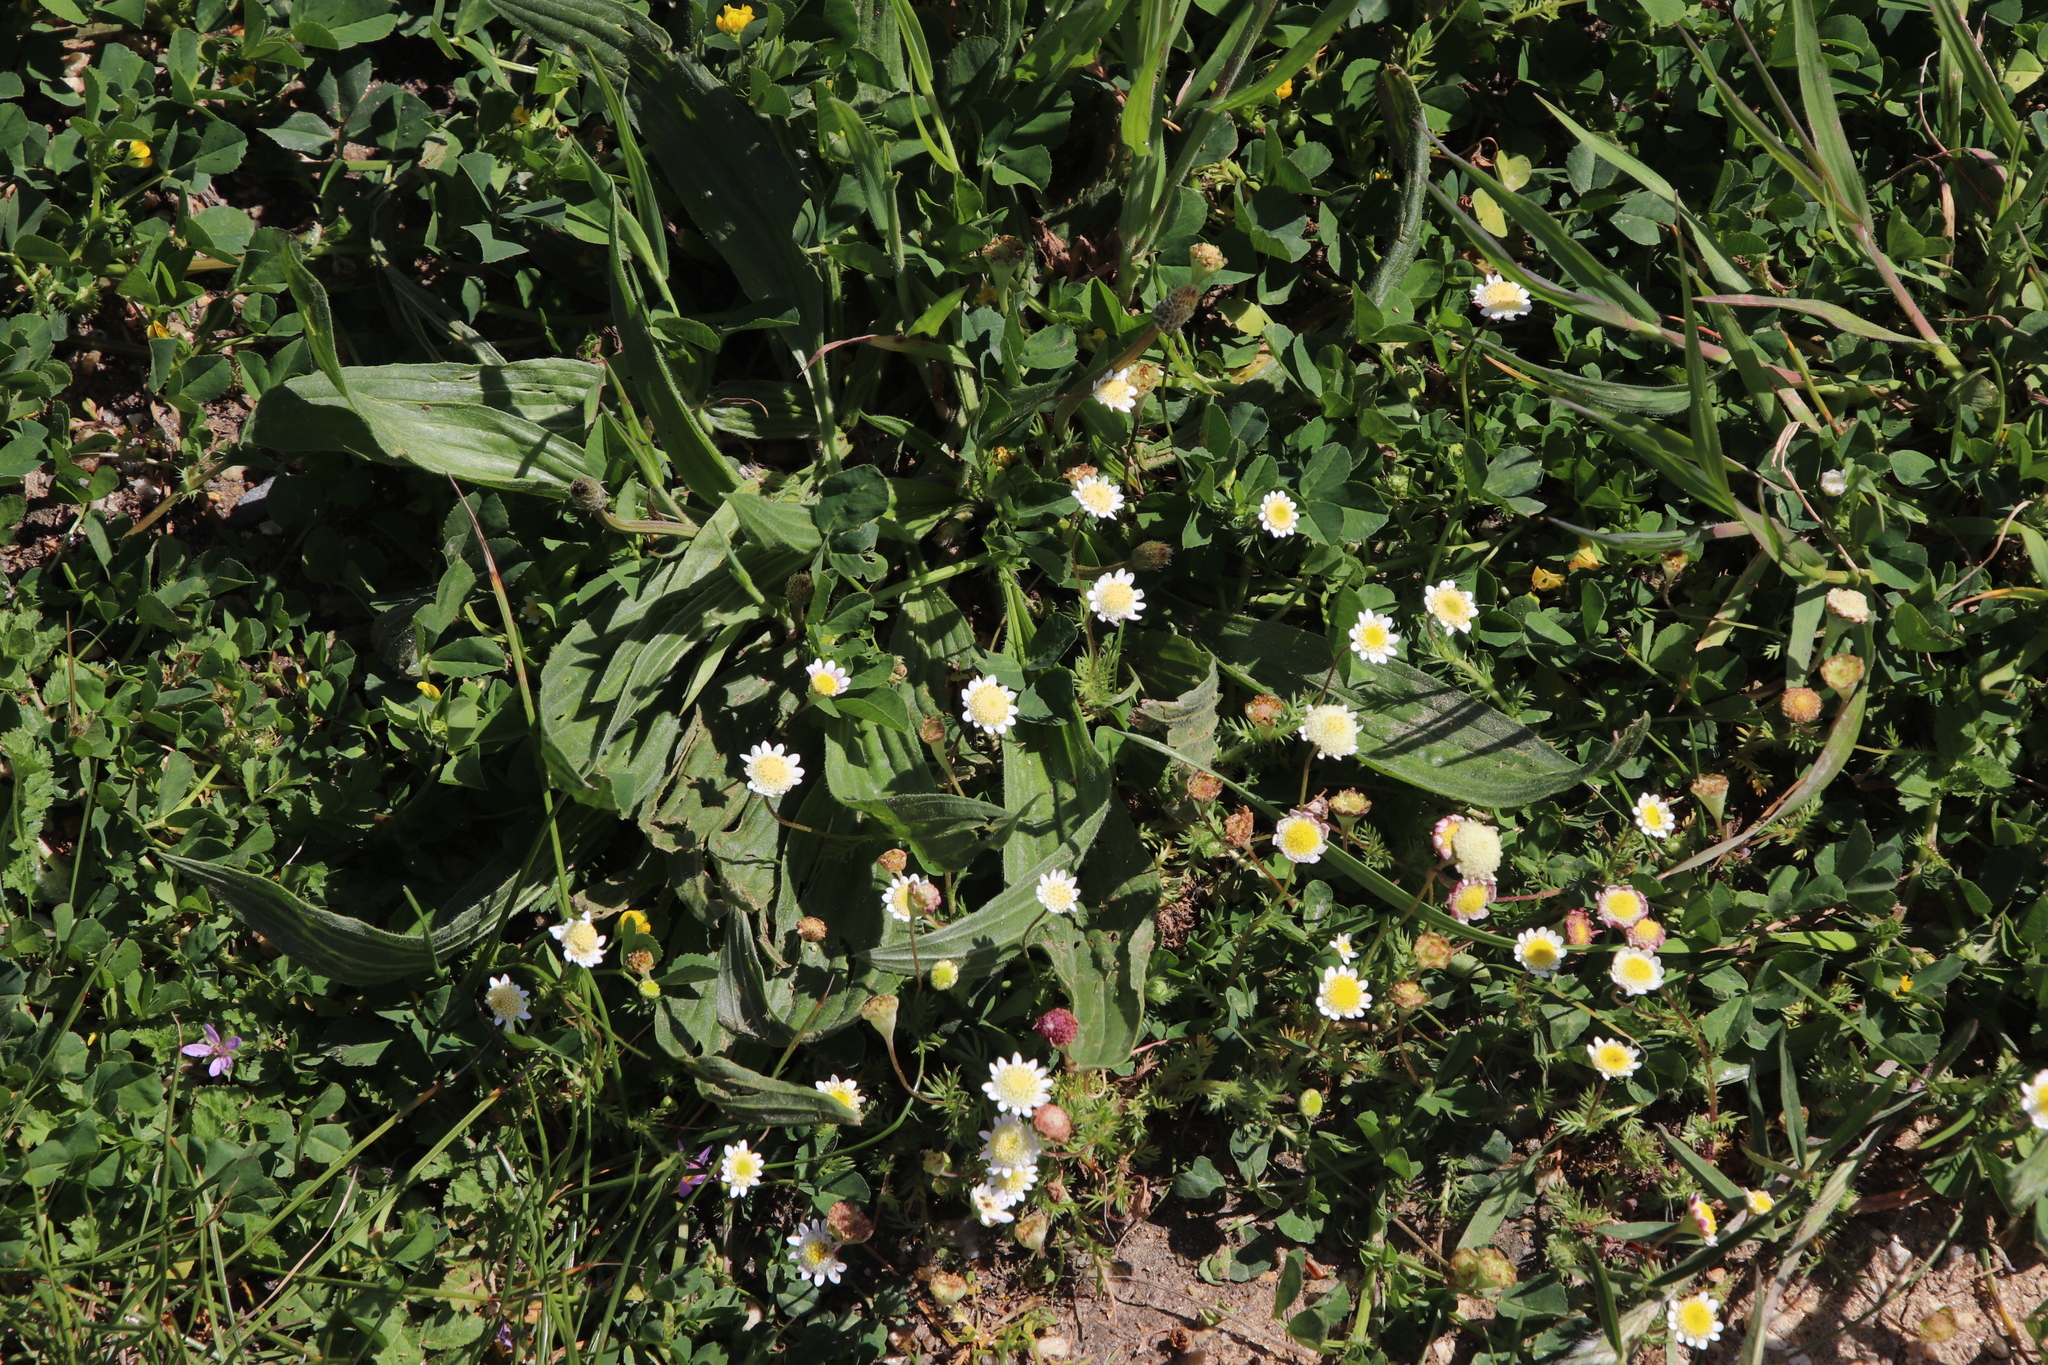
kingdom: Plantae
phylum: Tracheophyta
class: Magnoliopsida
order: Asterales
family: Asteraceae
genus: Cotula
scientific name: Cotula turbinata
